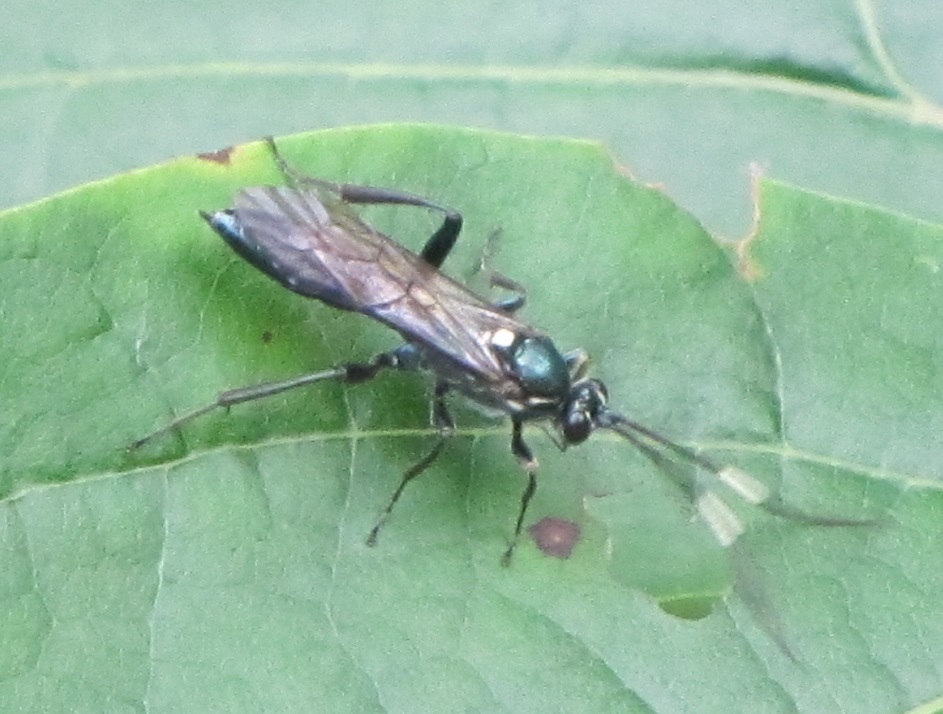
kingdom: Animalia
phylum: Arthropoda
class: Insecta
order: Hymenoptera
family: Ichneumonidae
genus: Platylabus
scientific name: Platylabus clarus
